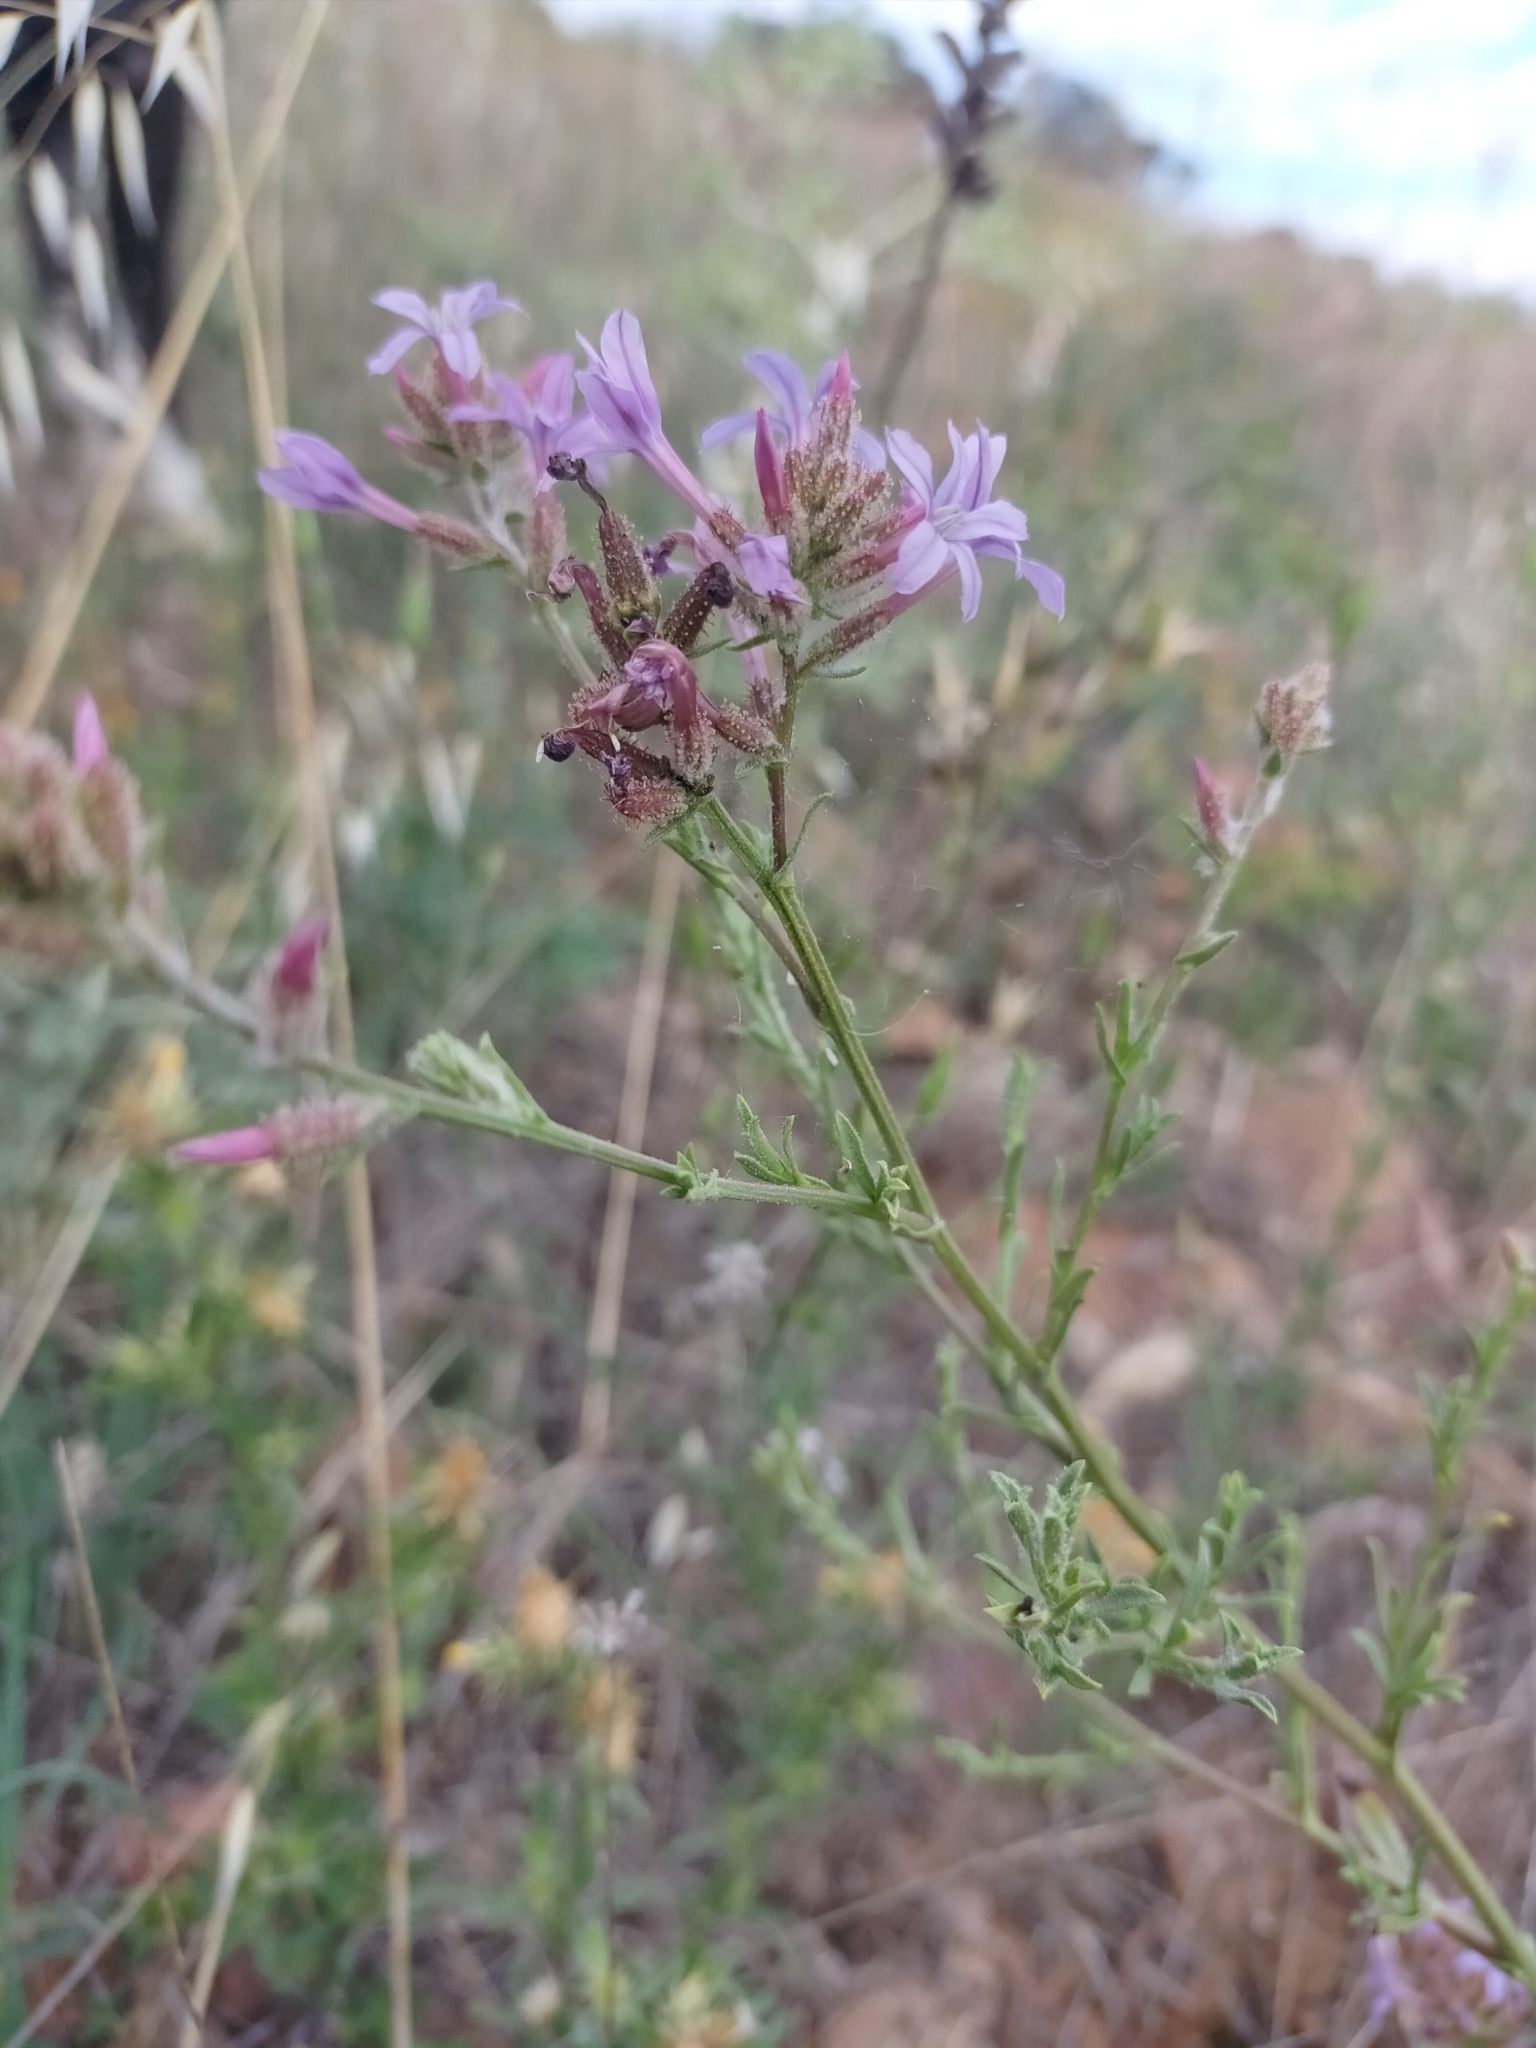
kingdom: Plantae
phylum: Tracheophyta
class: Magnoliopsida
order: Caryophyllales
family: Plumbaginaceae
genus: Plumbago
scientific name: Plumbago europaea
